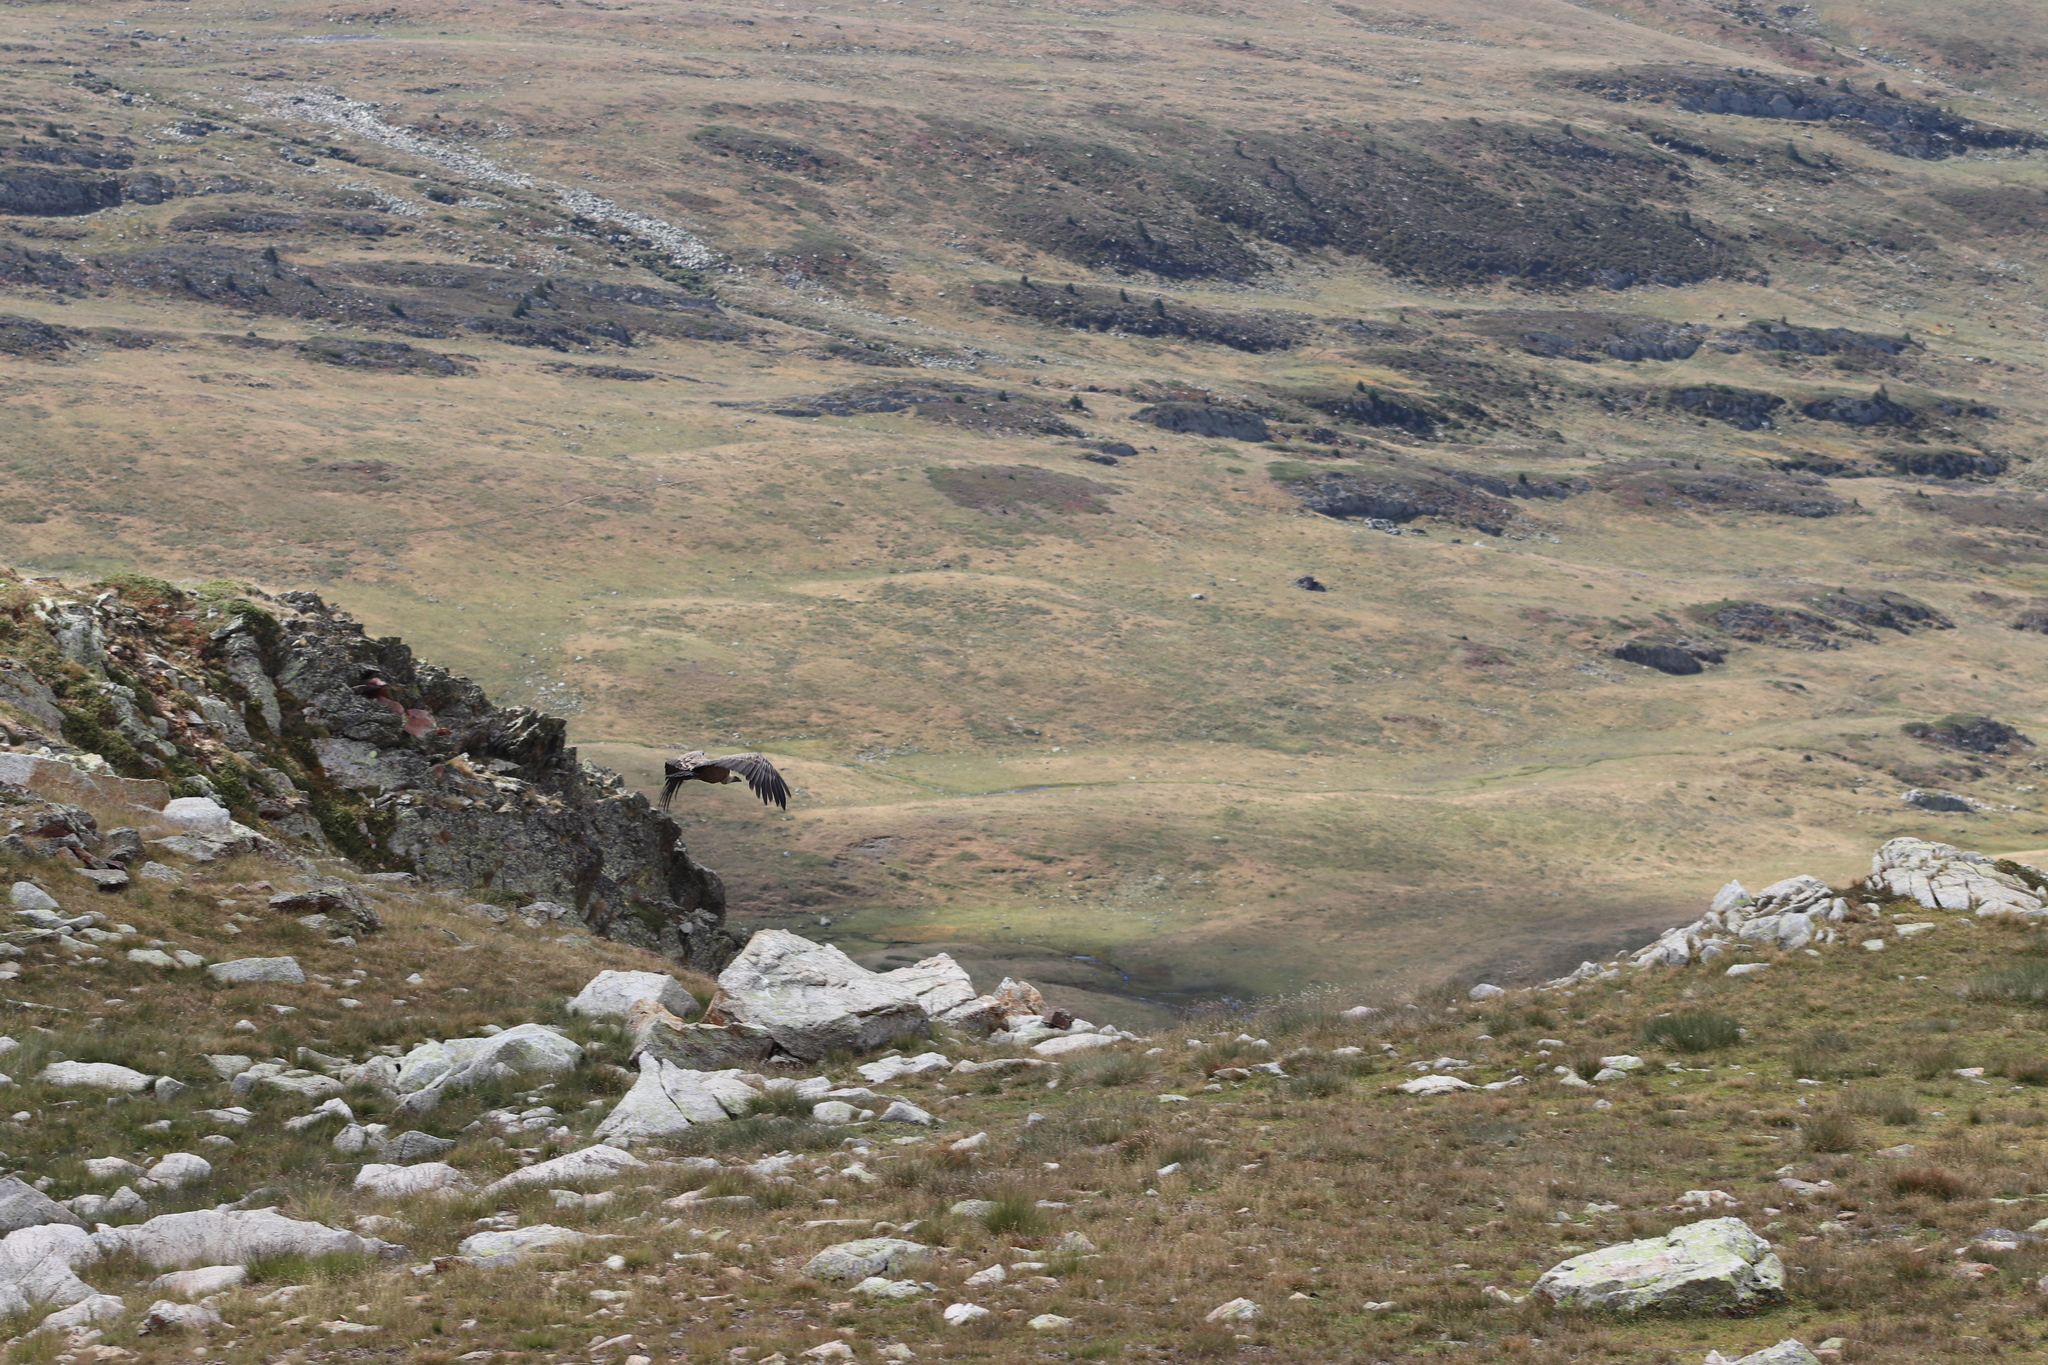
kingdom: Animalia
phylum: Chordata
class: Aves
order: Accipitriformes
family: Accipitridae
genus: Gyps
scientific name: Gyps fulvus
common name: Griffon vulture
